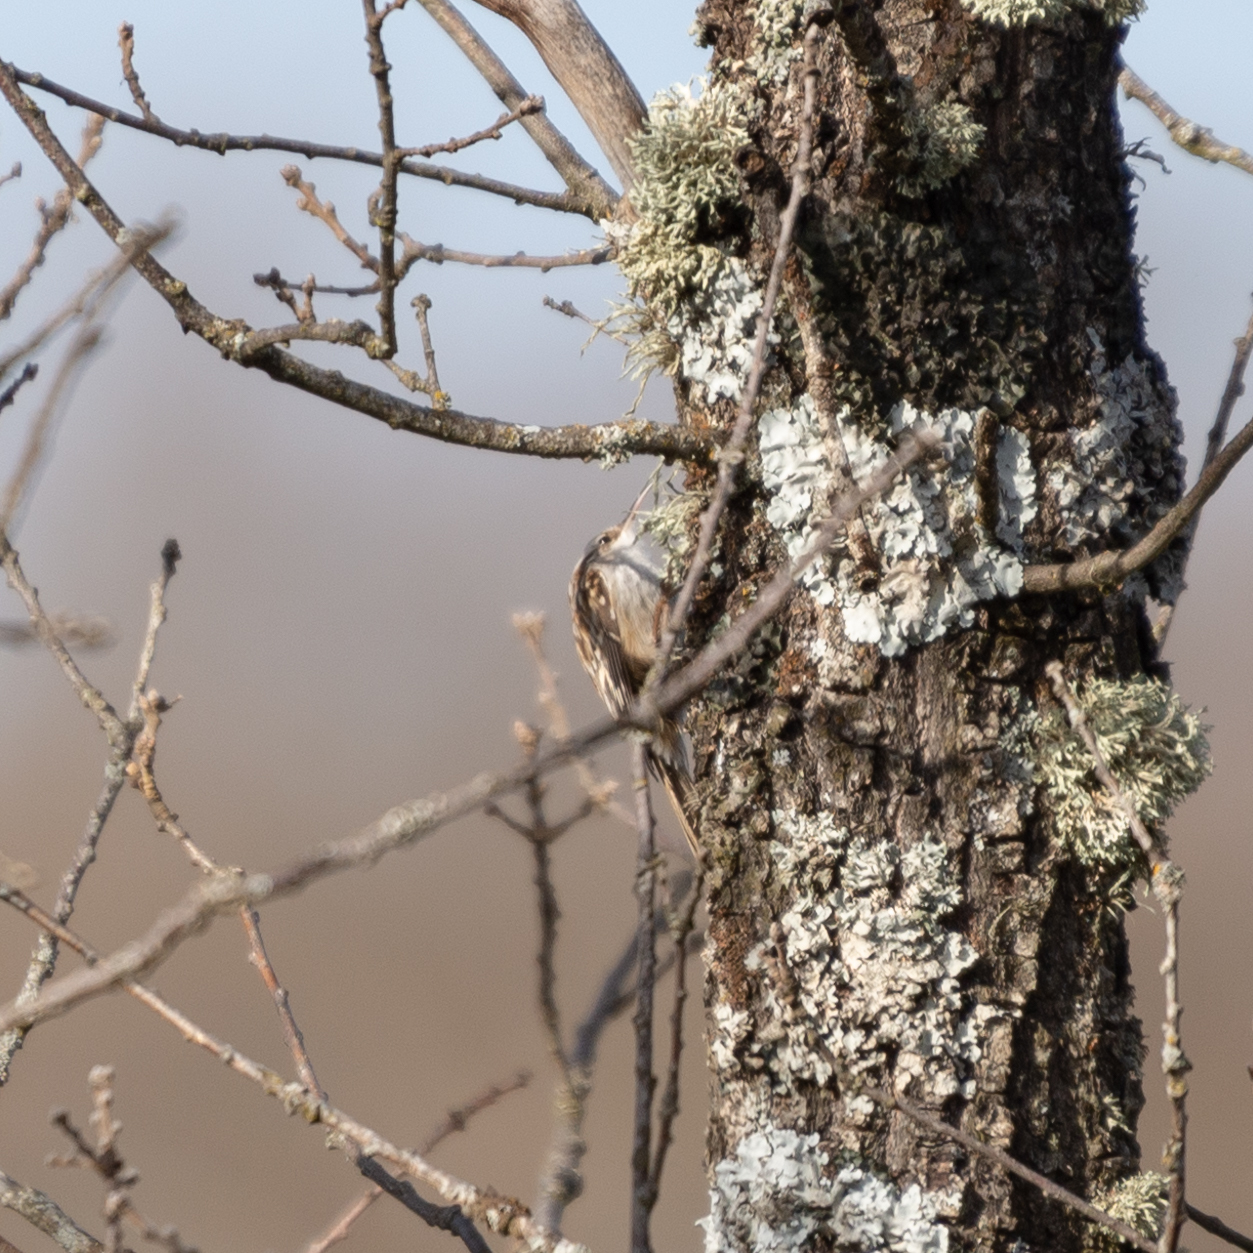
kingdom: Animalia
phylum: Chordata
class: Aves
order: Passeriformes
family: Certhiidae
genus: Certhia
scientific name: Certhia brachydactyla
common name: Short-toed treecreeper
